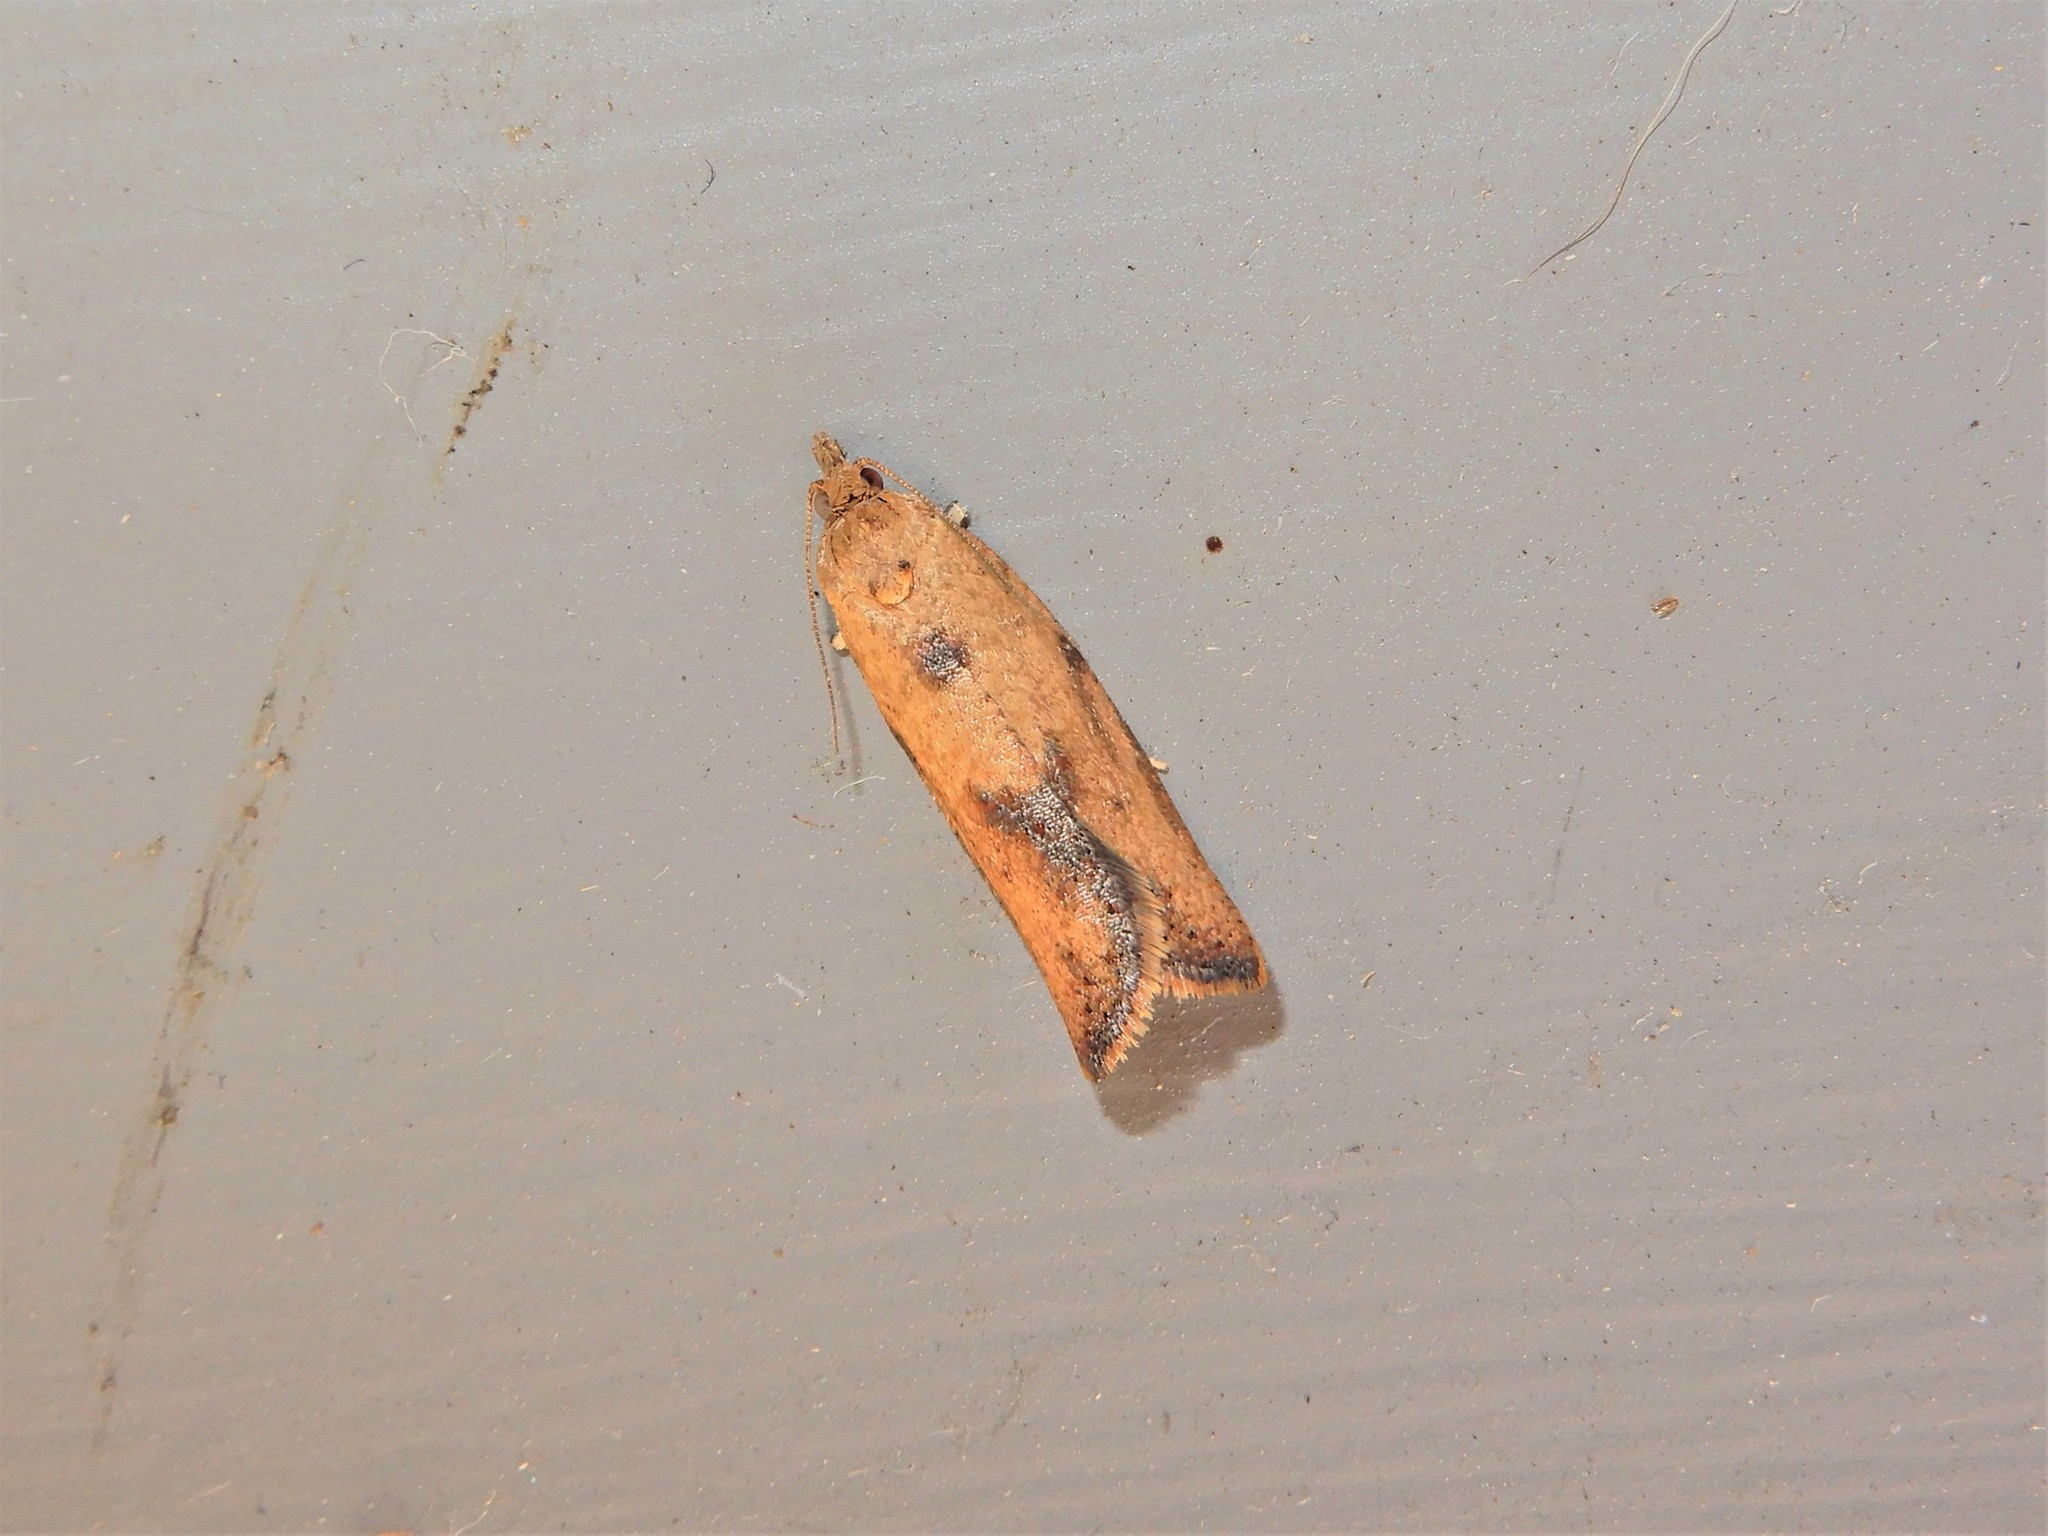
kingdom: Animalia
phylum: Arthropoda
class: Insecta
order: Lepidoptera
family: Tortricidae
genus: Epiphyas
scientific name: Epiphyas postvittana
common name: Light brown apple moth
